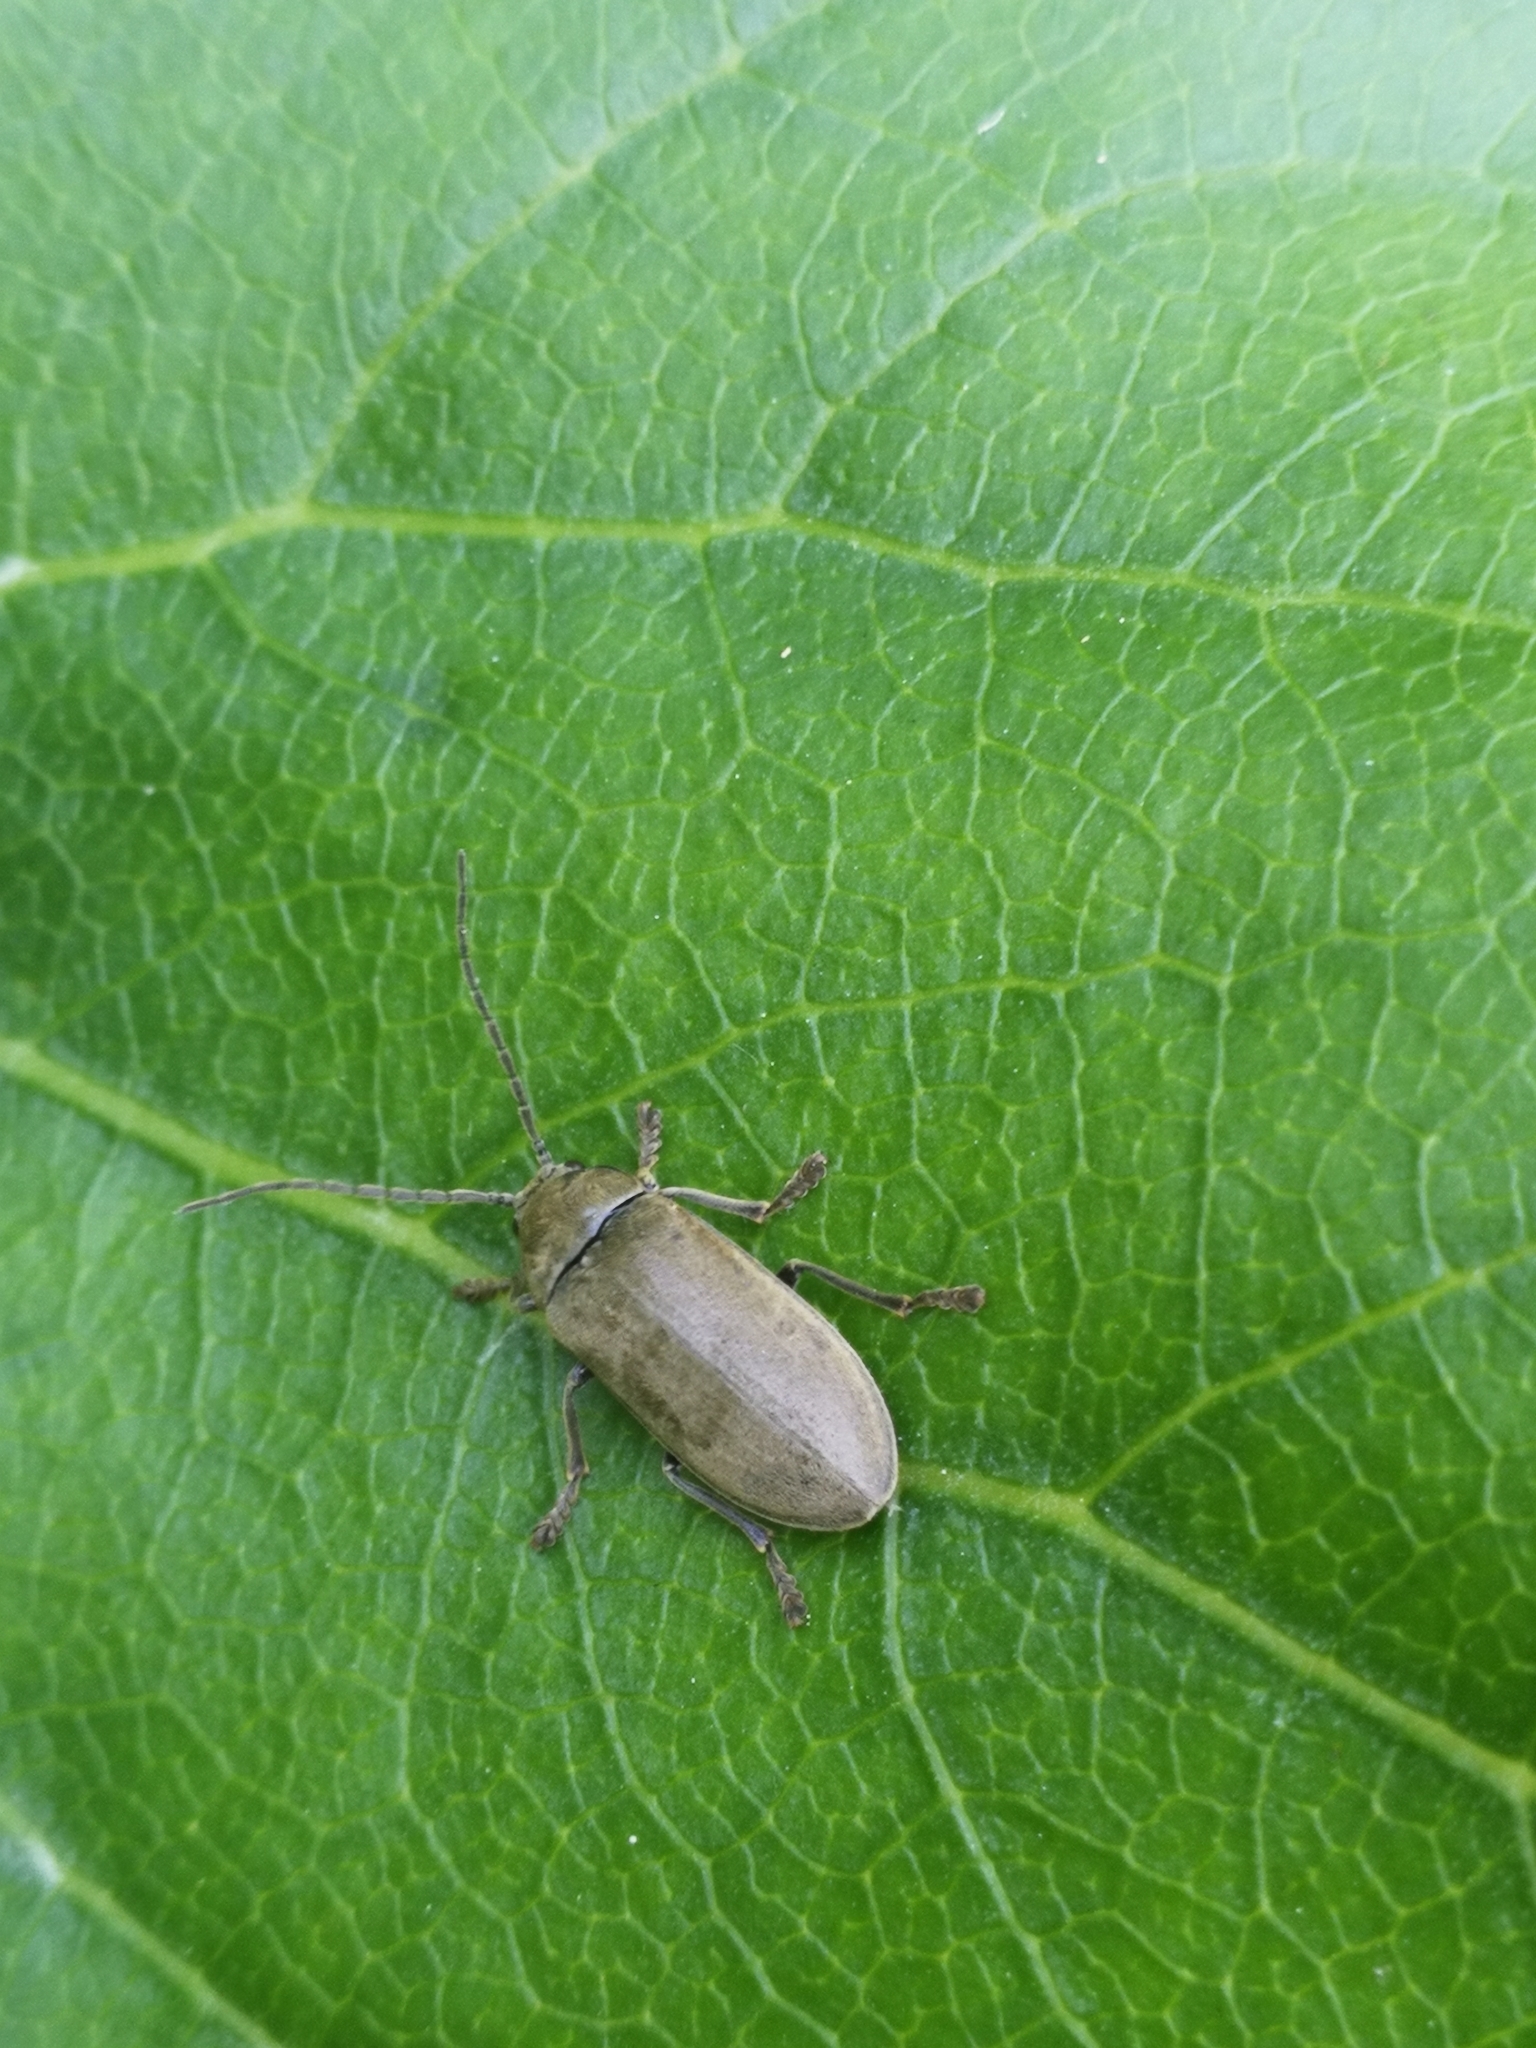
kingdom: Animalia
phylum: Arthropoda
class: Insecta
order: Coleoptera
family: Dascillidae
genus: Dascillus
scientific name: Dascillus cervinus
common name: Orchid beetle
